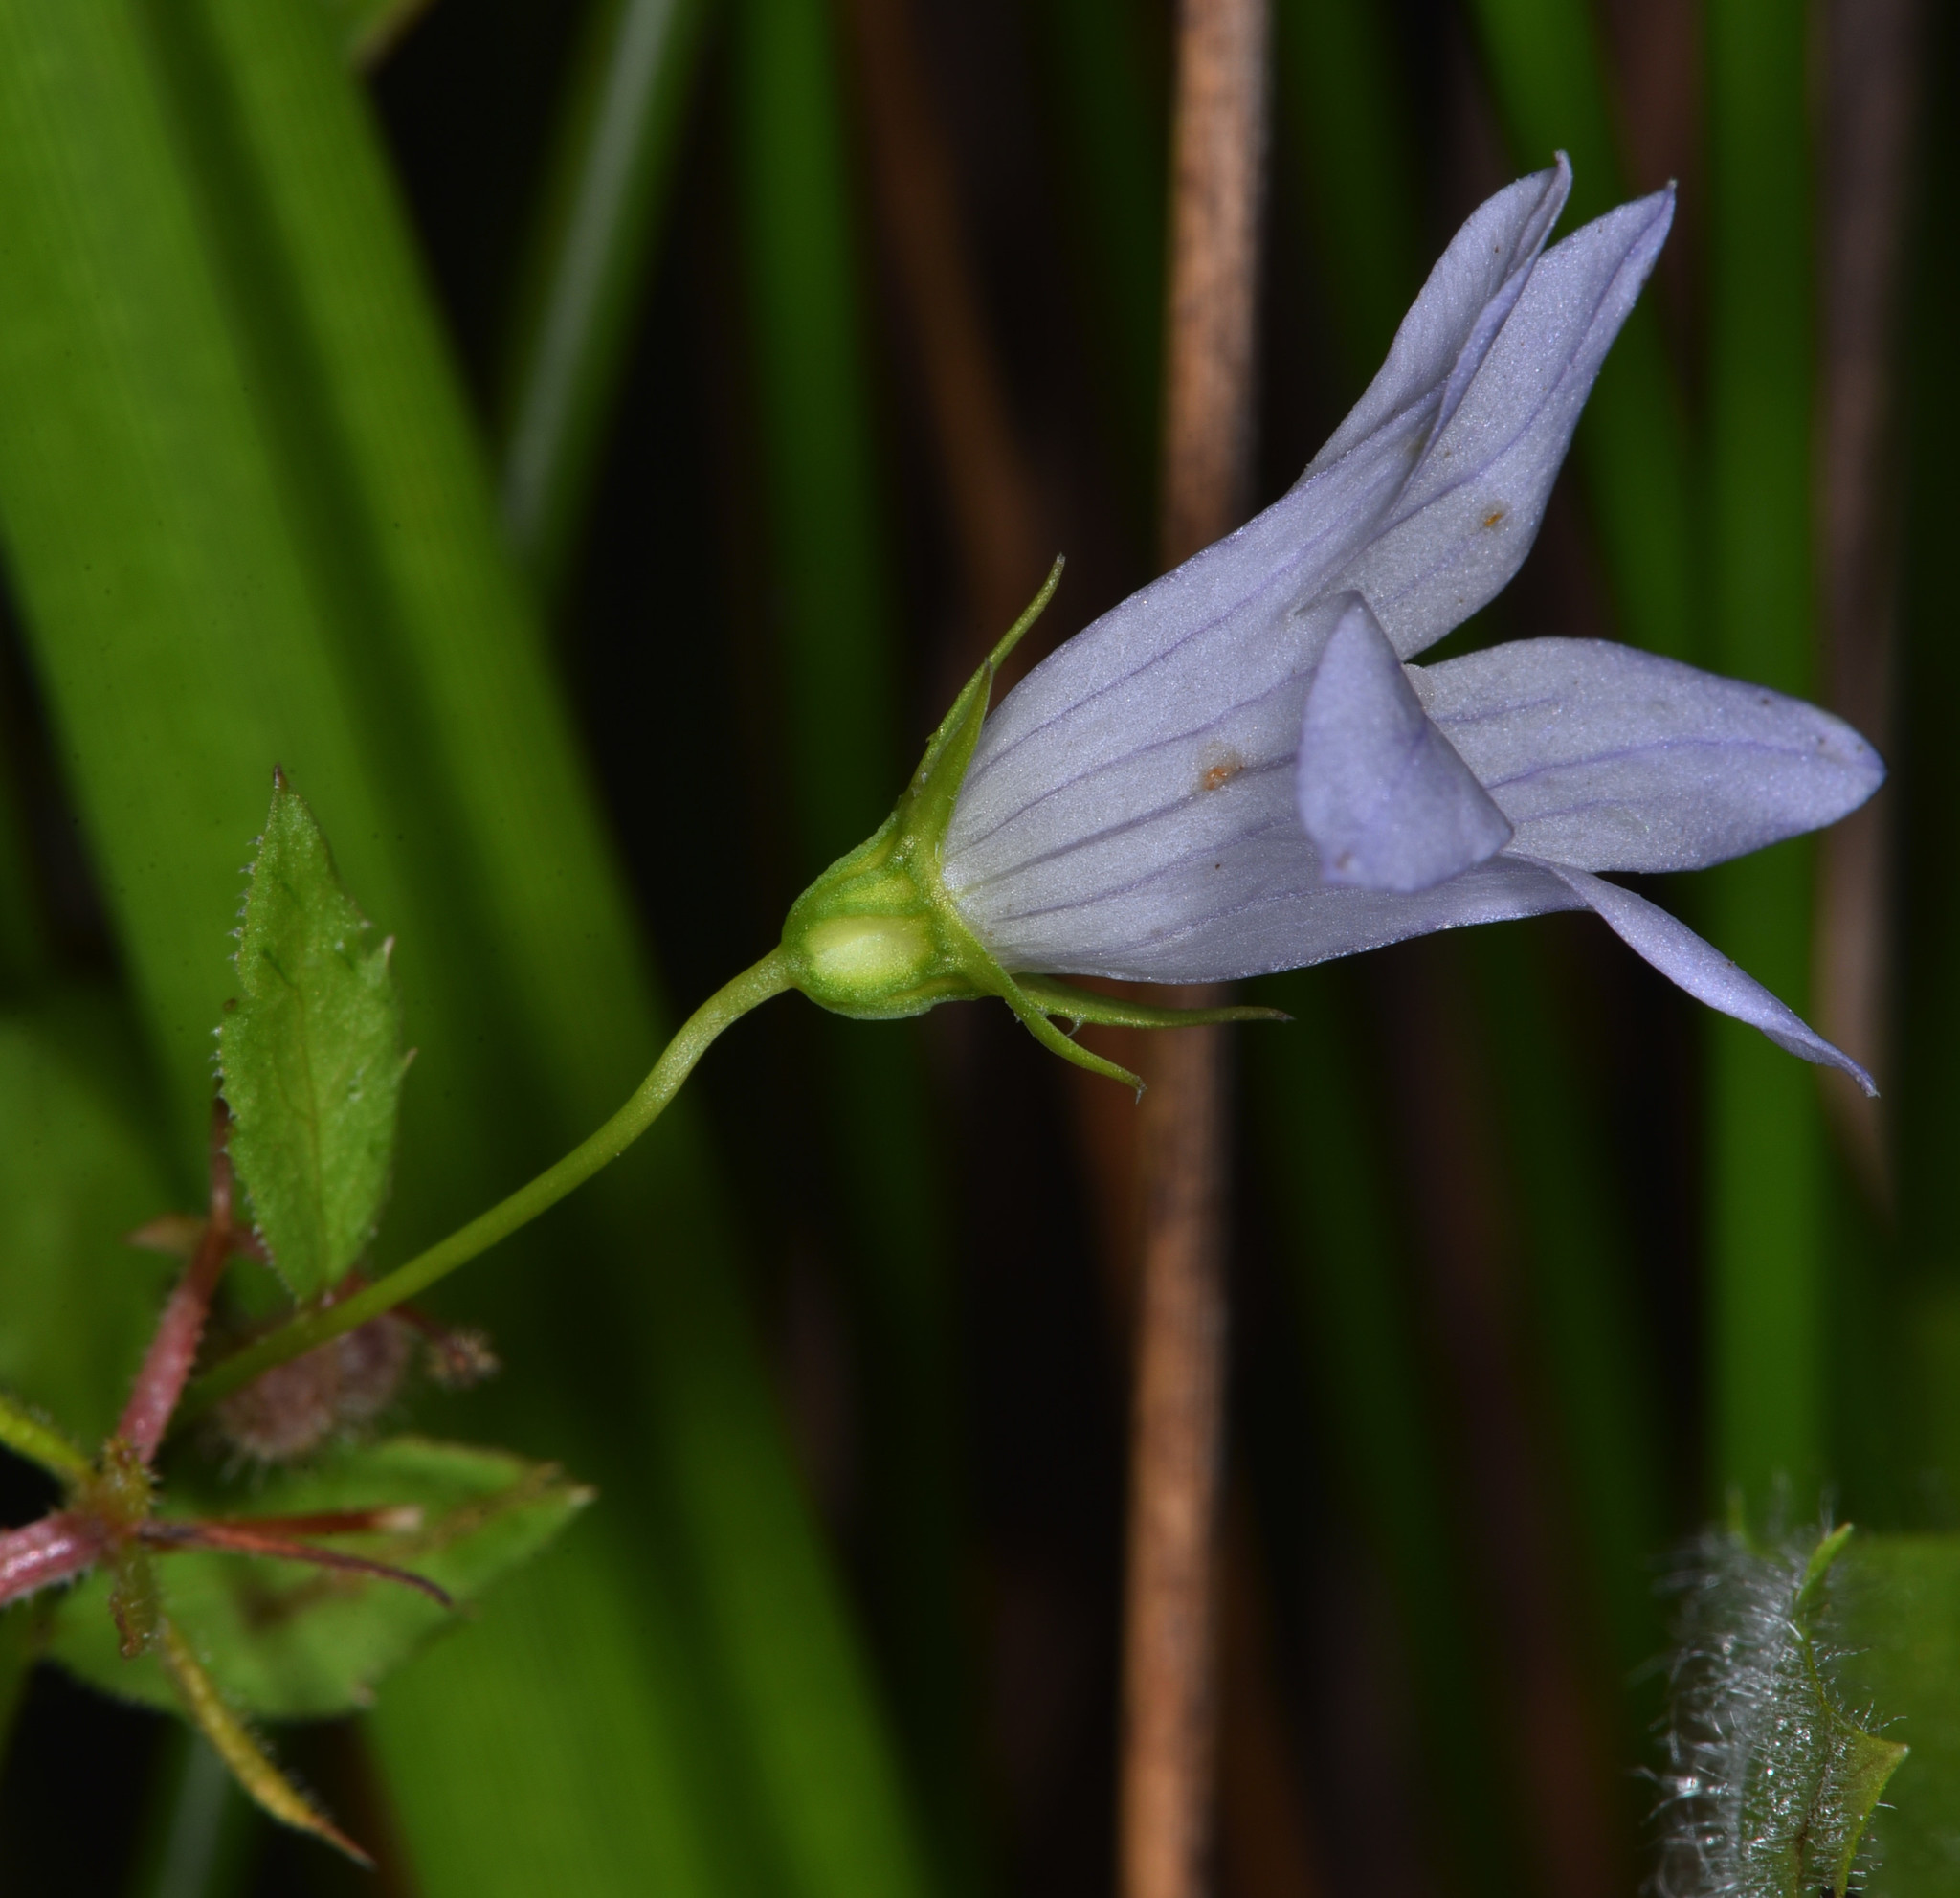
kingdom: Plantae
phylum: Tracheophyta
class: Magnoliopsida
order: Asterales
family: Campanulaceae
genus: Eastwoodiella
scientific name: Eastwoodiella californica
